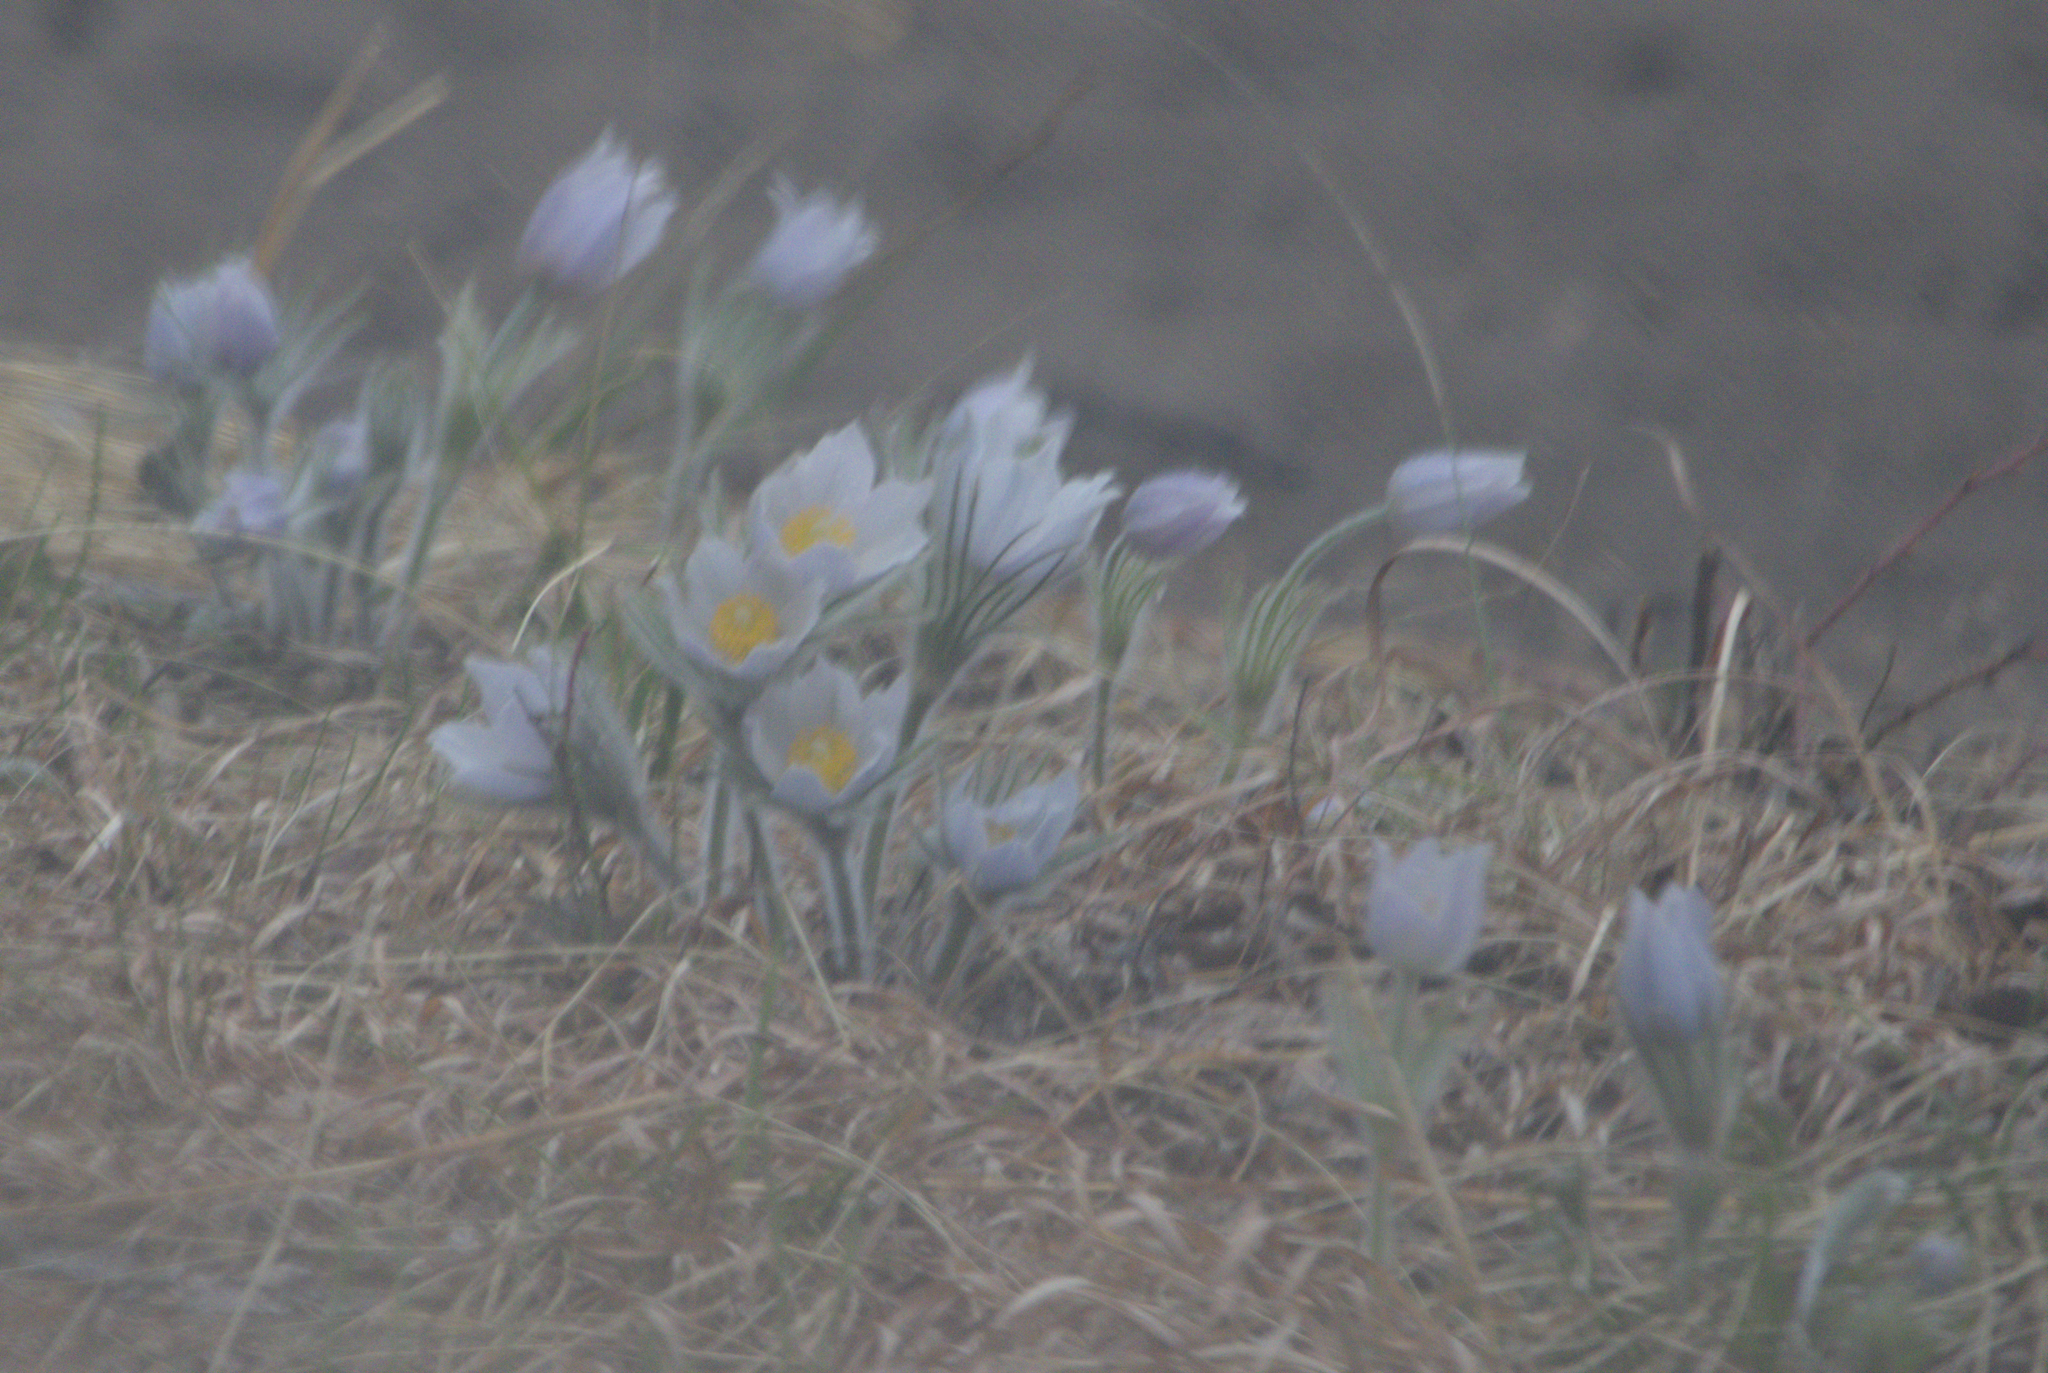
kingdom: Plantae
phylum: Tracheophyta
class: Magnoliopsida
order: Ranunculales
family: Ranunculaceae
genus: Pulsatilla
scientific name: Pulsatilla nuttalliana
